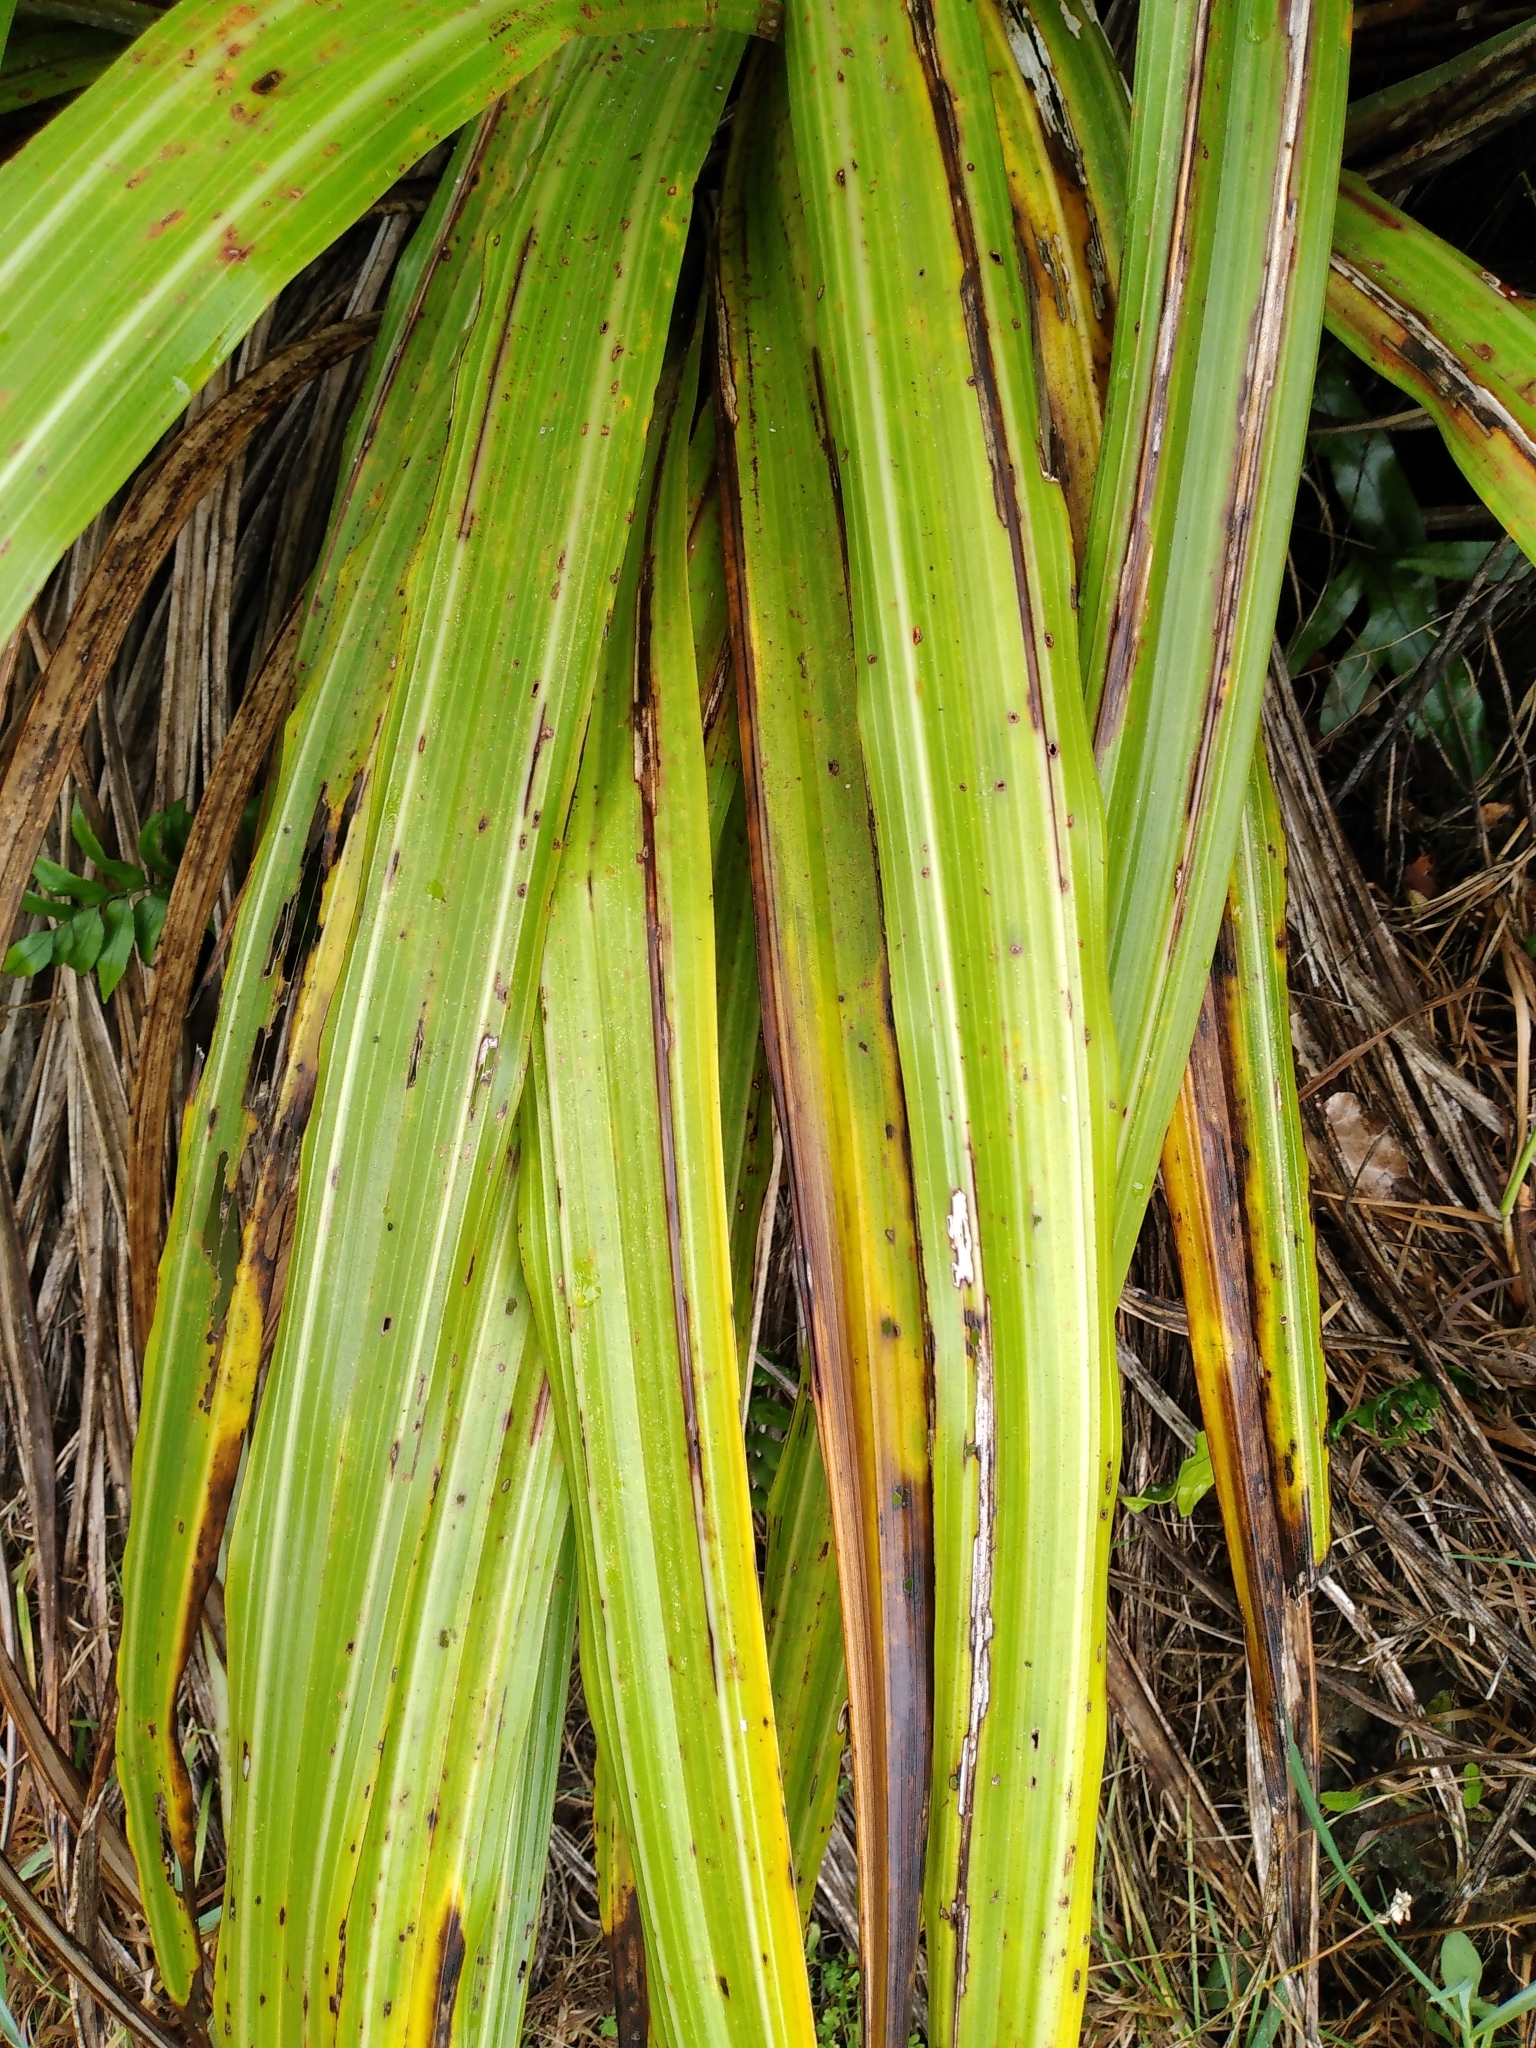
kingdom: Plantae
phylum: Tracheophyta
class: Liliopsida
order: Asparagales
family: Asteliaceae
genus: Astelia
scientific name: Astelia fragrans
